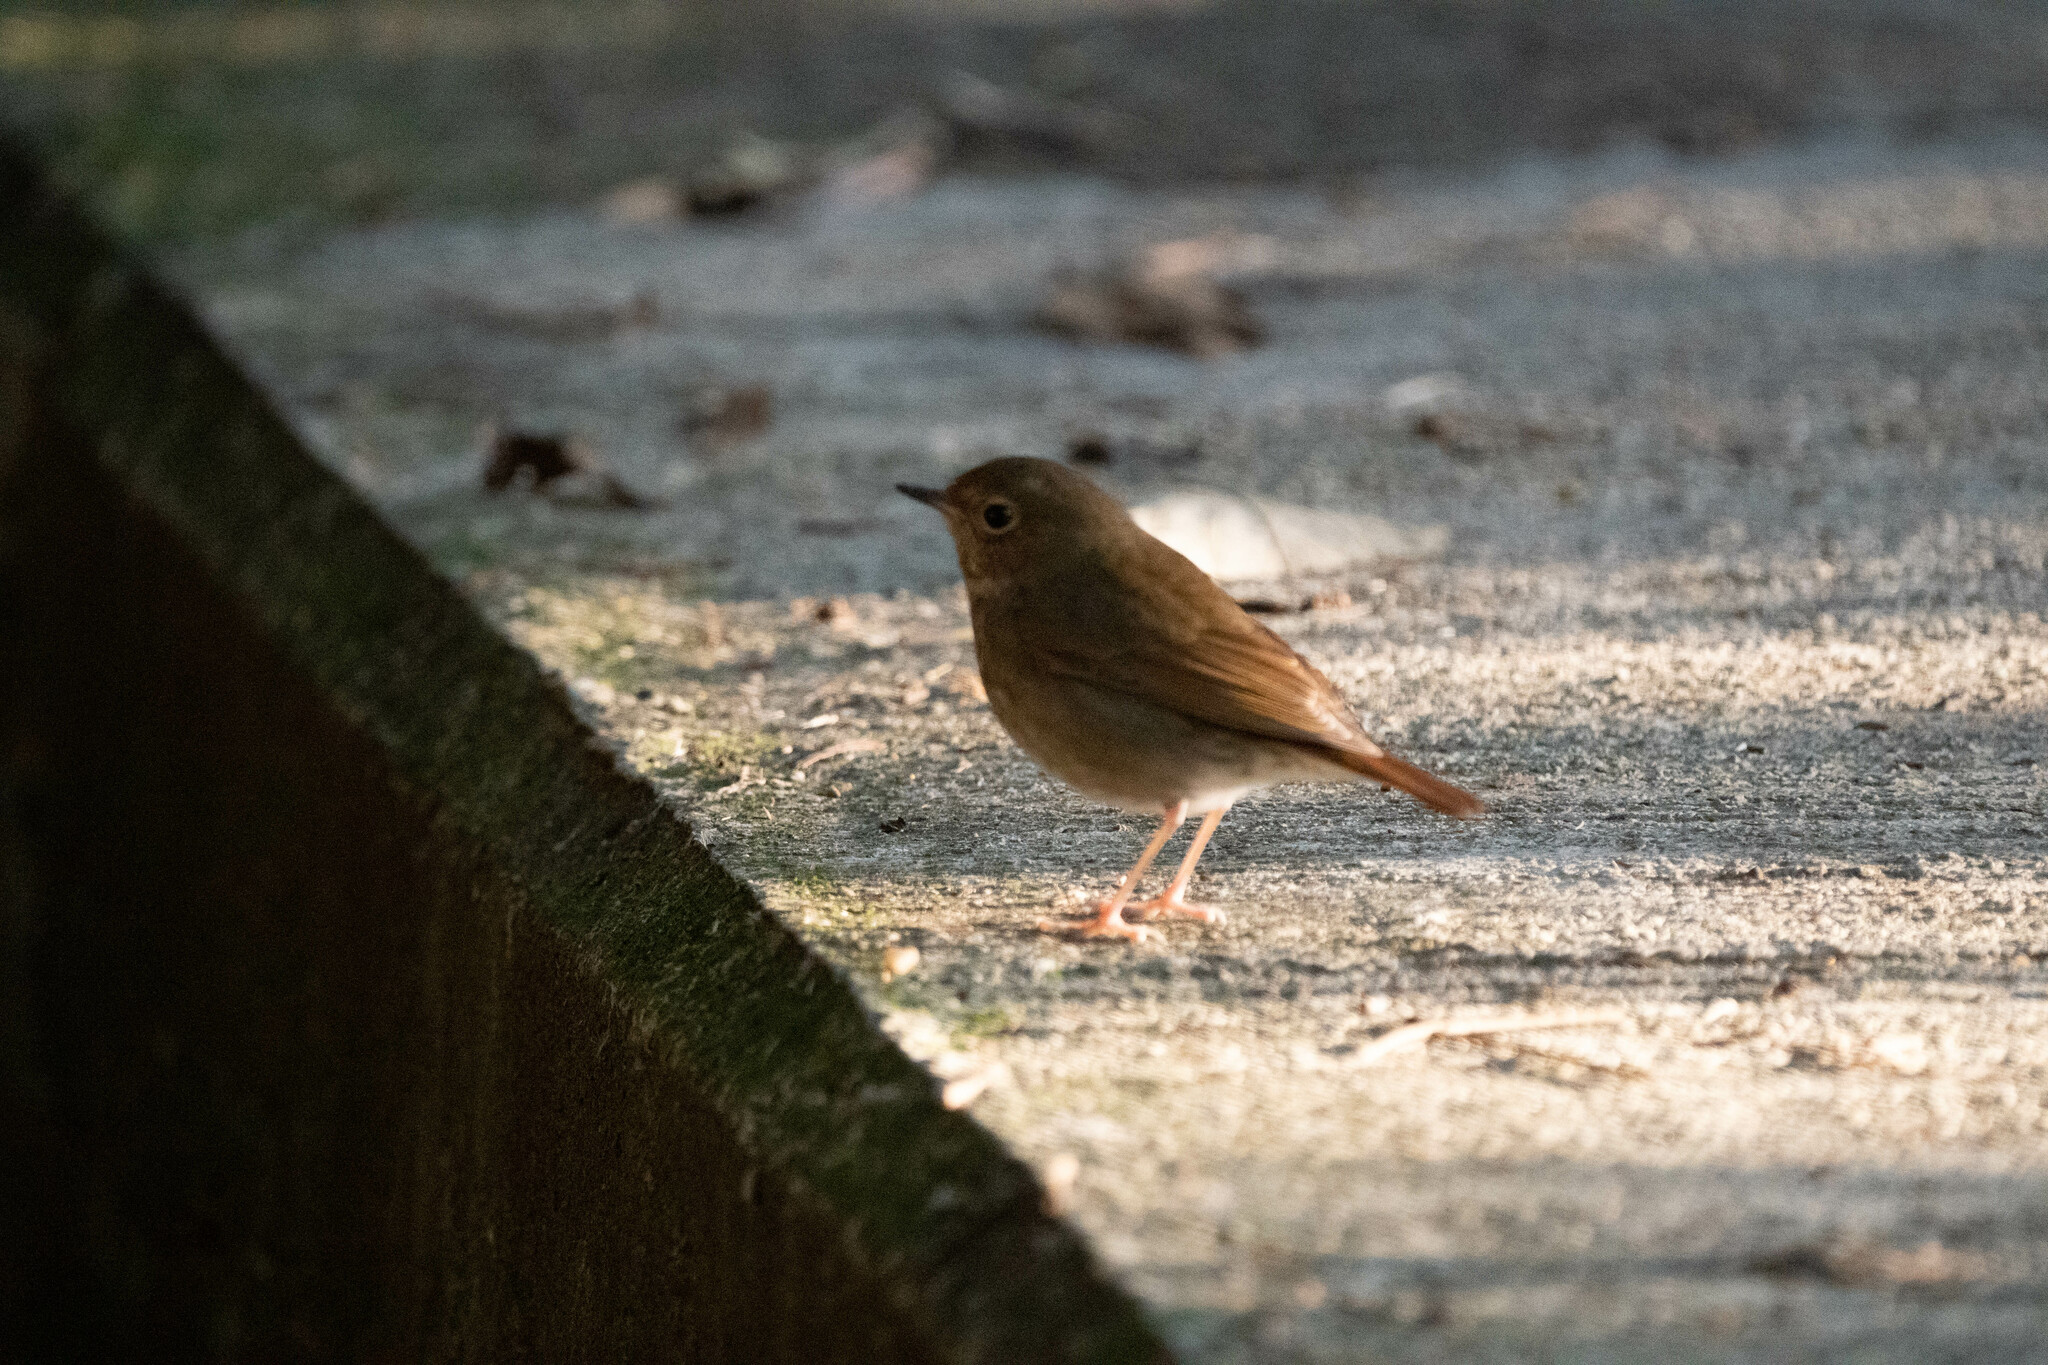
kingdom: Animalia
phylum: Chordata
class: Aves
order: Passeriformes
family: Muscicapidae
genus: Larvivora
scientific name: Larvivora sibilans
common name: Rufous-tailed robin
